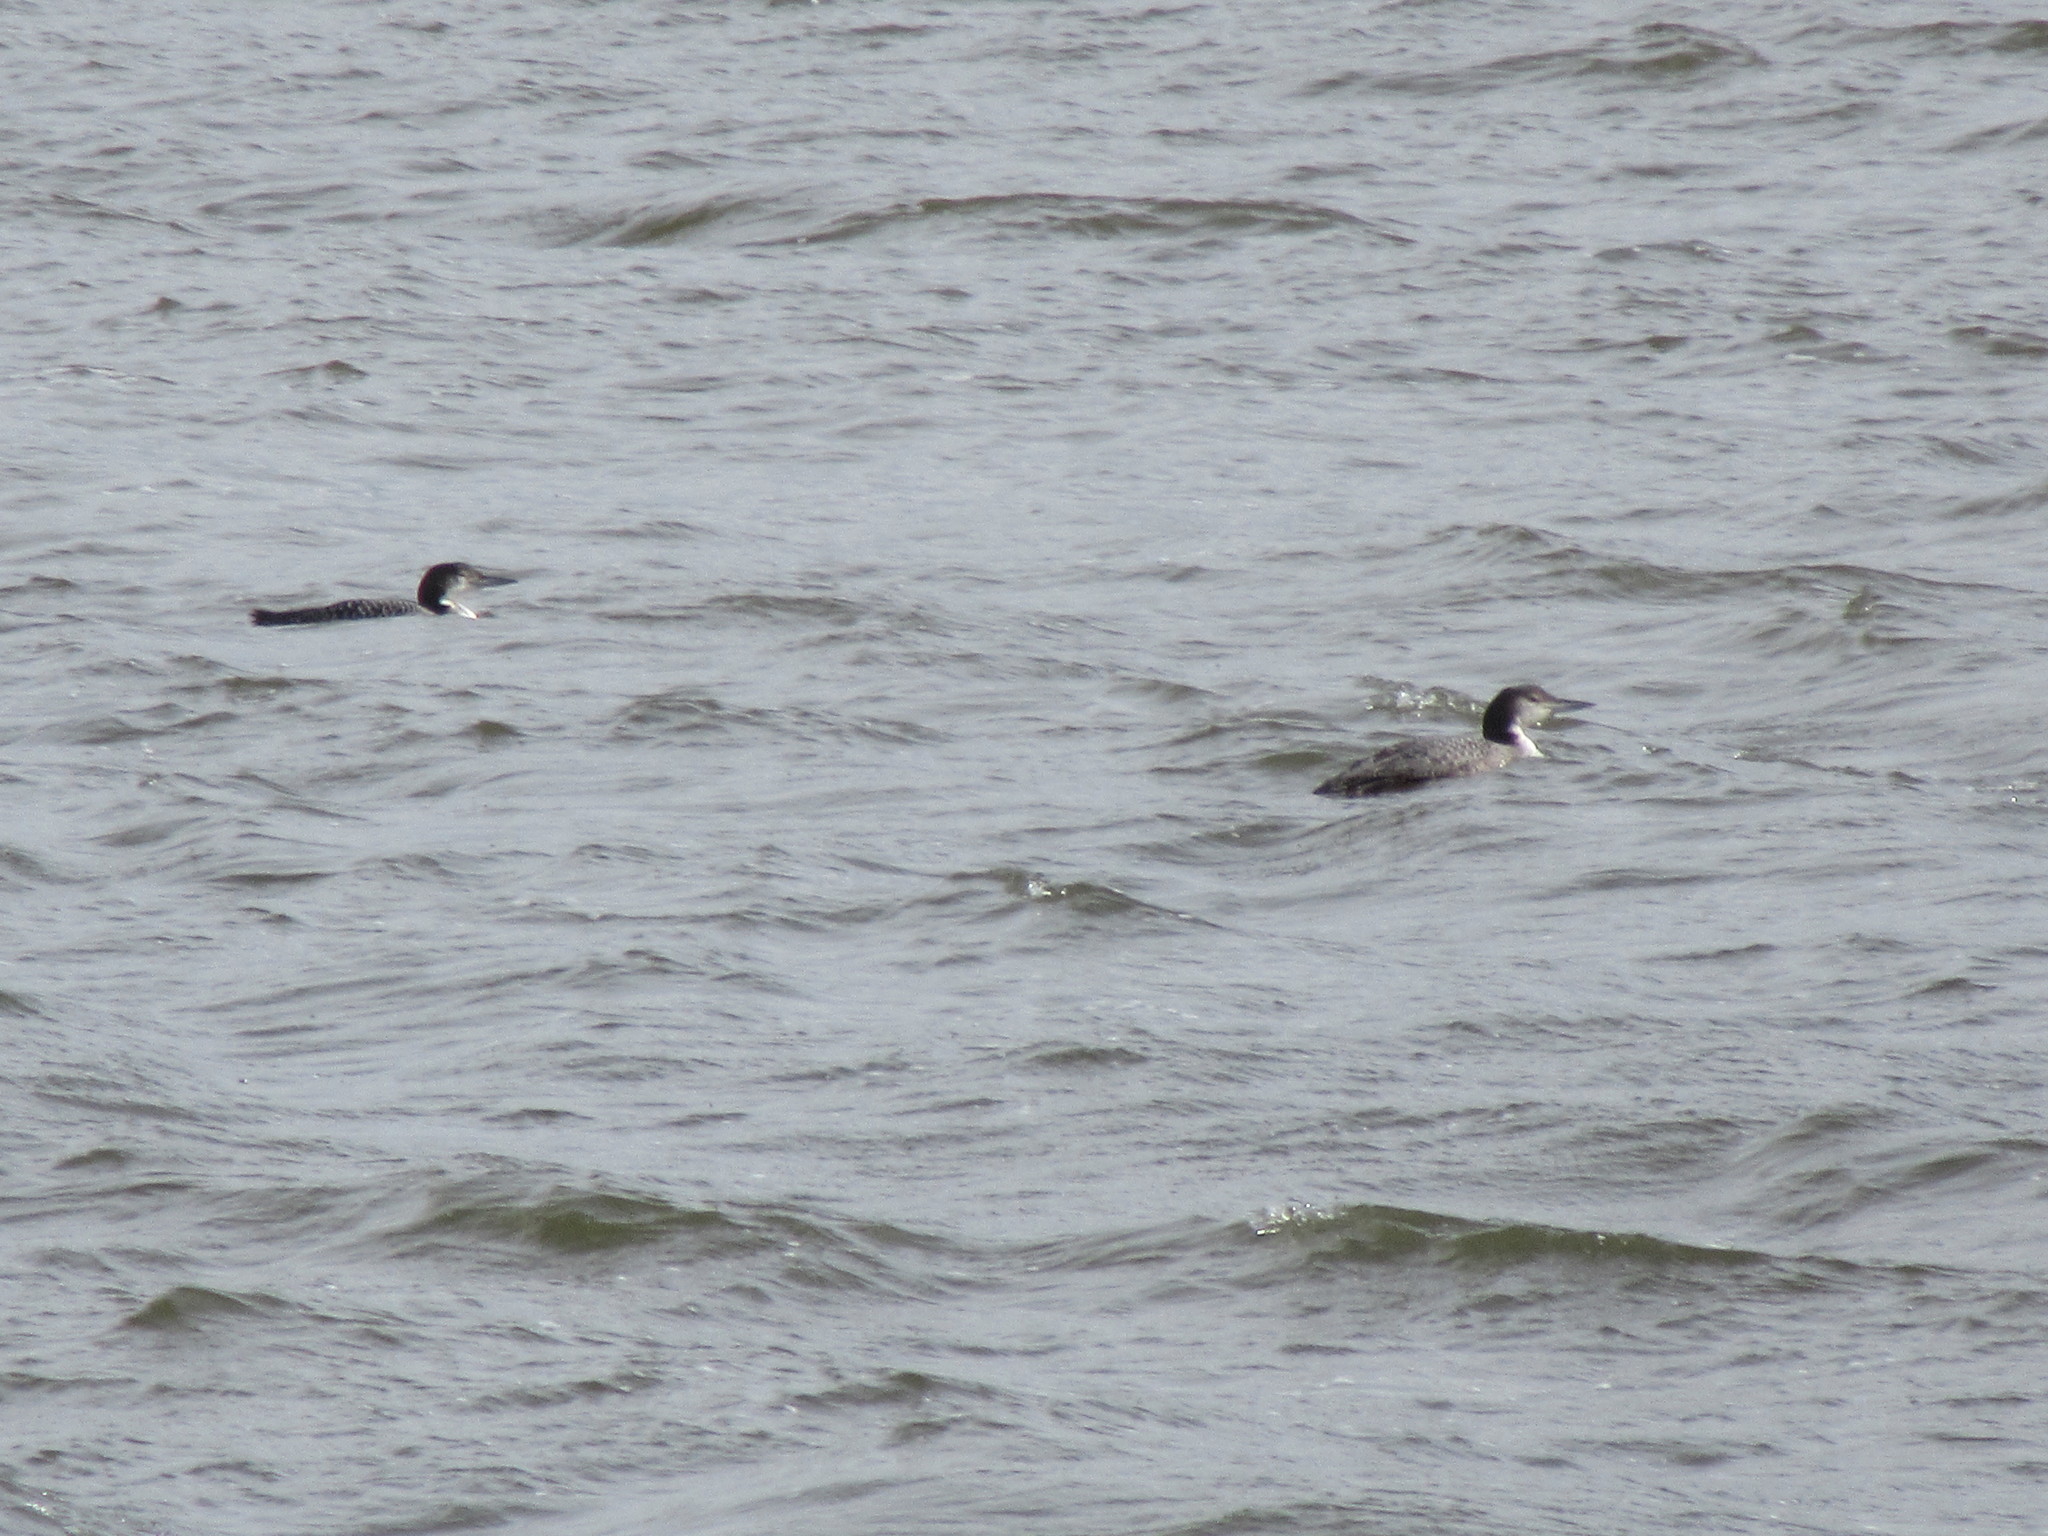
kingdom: Animalia
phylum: Chordata
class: Aves
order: Gaviiformes
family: Gaviidae
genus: Gavia
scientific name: Gavia immer
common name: Common loon
